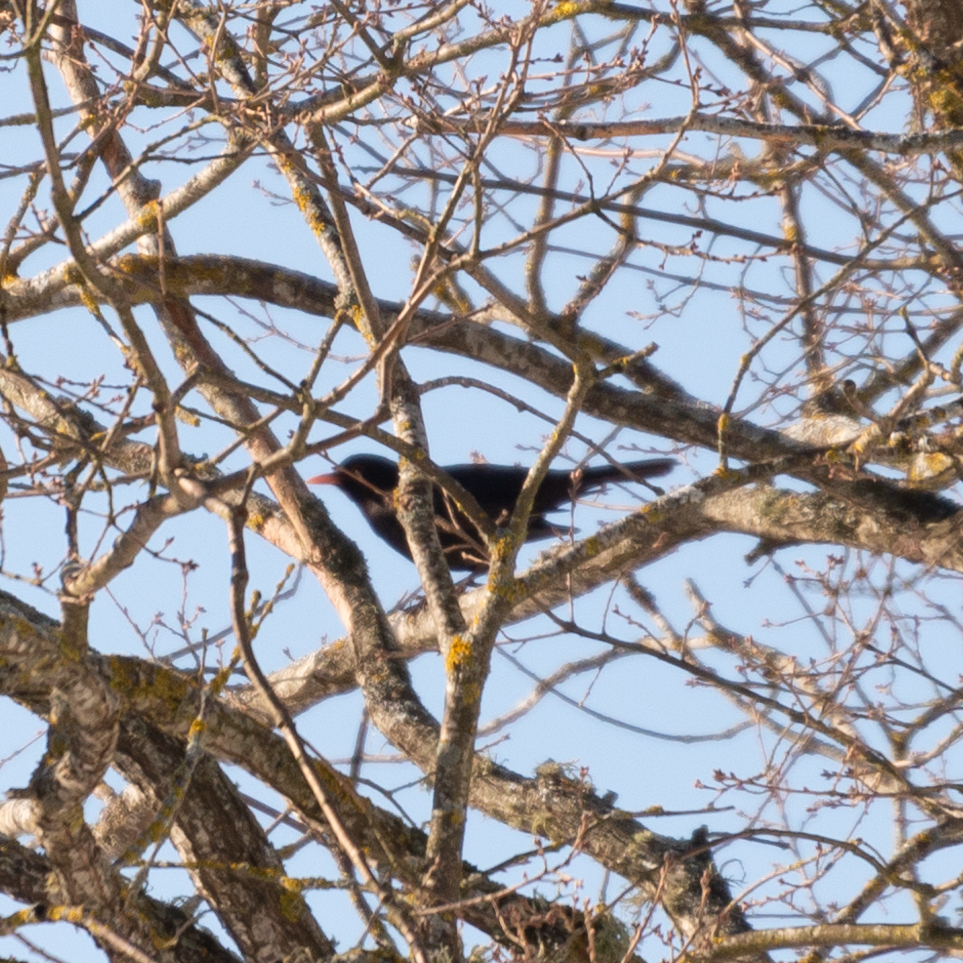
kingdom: Animalia
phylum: Chordata
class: Aves
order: Passeriformes
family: Turdidae
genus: Turdus
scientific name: Turdus merula
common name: Common blackbird
